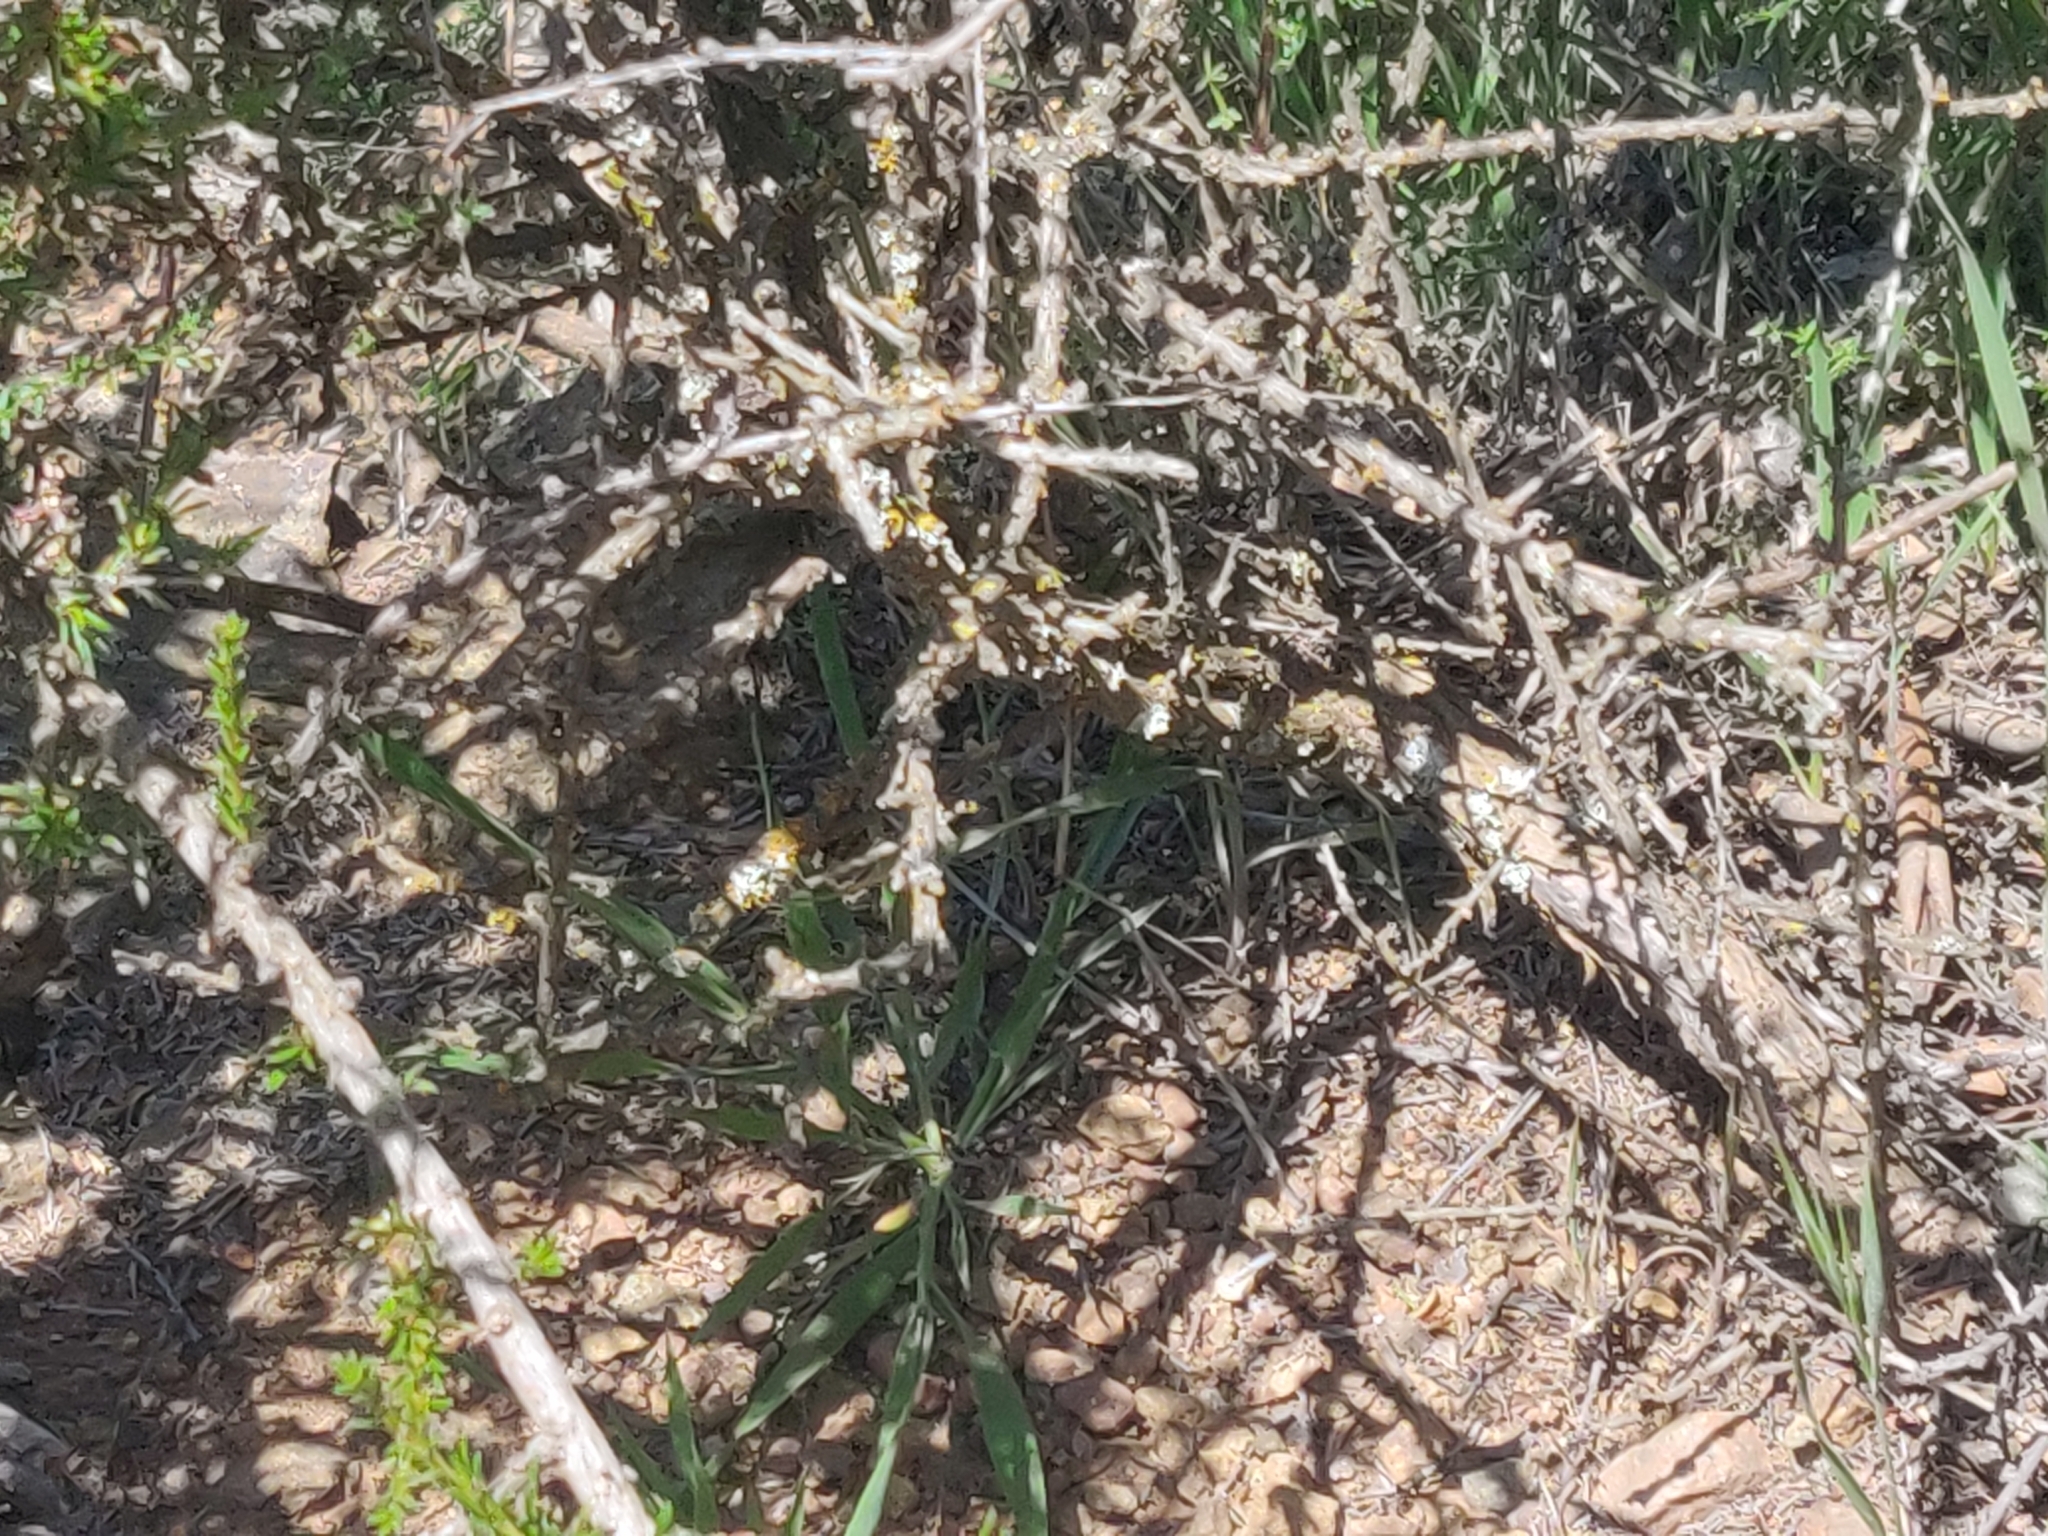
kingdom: Animalia
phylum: Chordata
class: Squamata
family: Teiidae
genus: Aspidoscelis
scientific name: Aspidoscelis tigris
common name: Tiger whiptail
